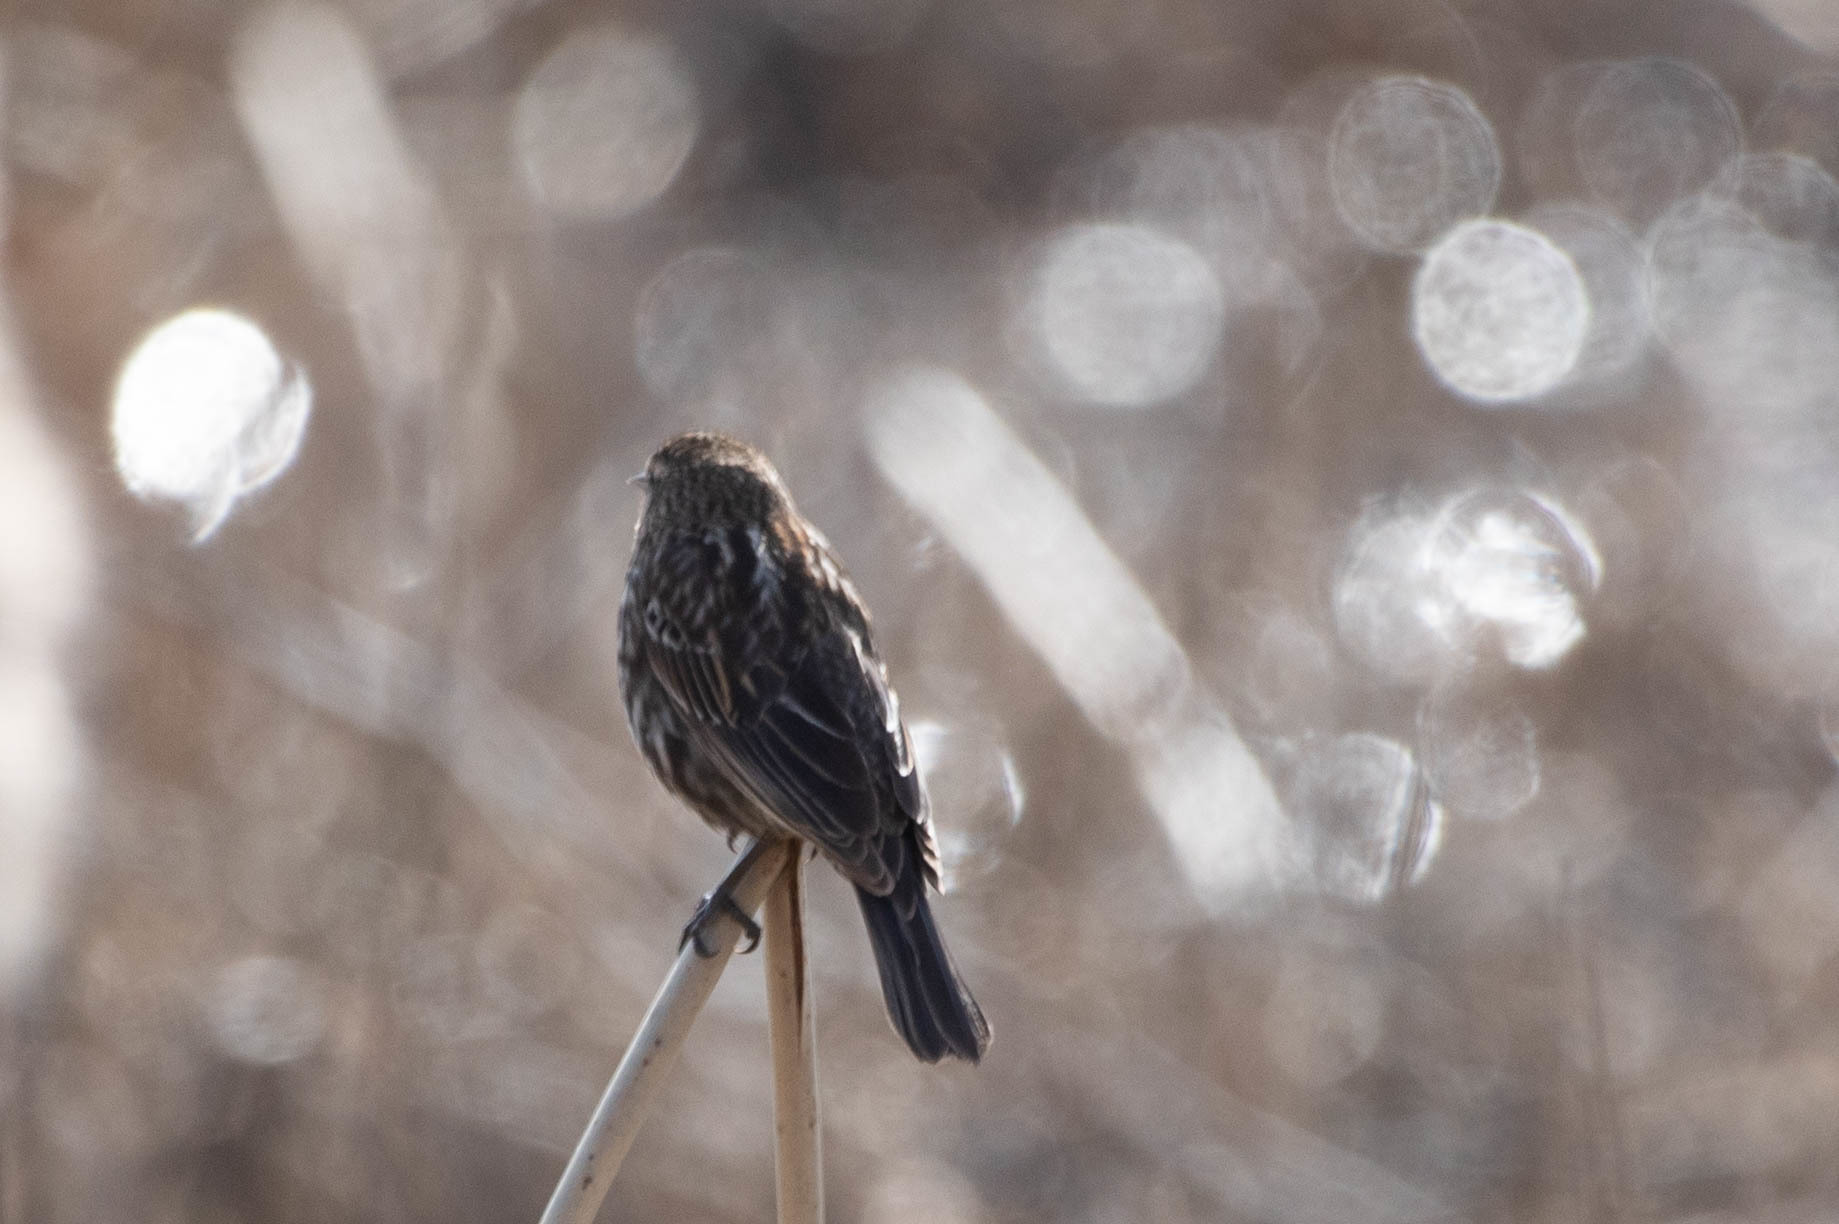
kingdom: Animalia
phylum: Chordata
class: Aves
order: Passeriformes
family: Icteridae
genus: Agelaius
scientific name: Agelaius phoeniceus
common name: Red-winged blackbird
